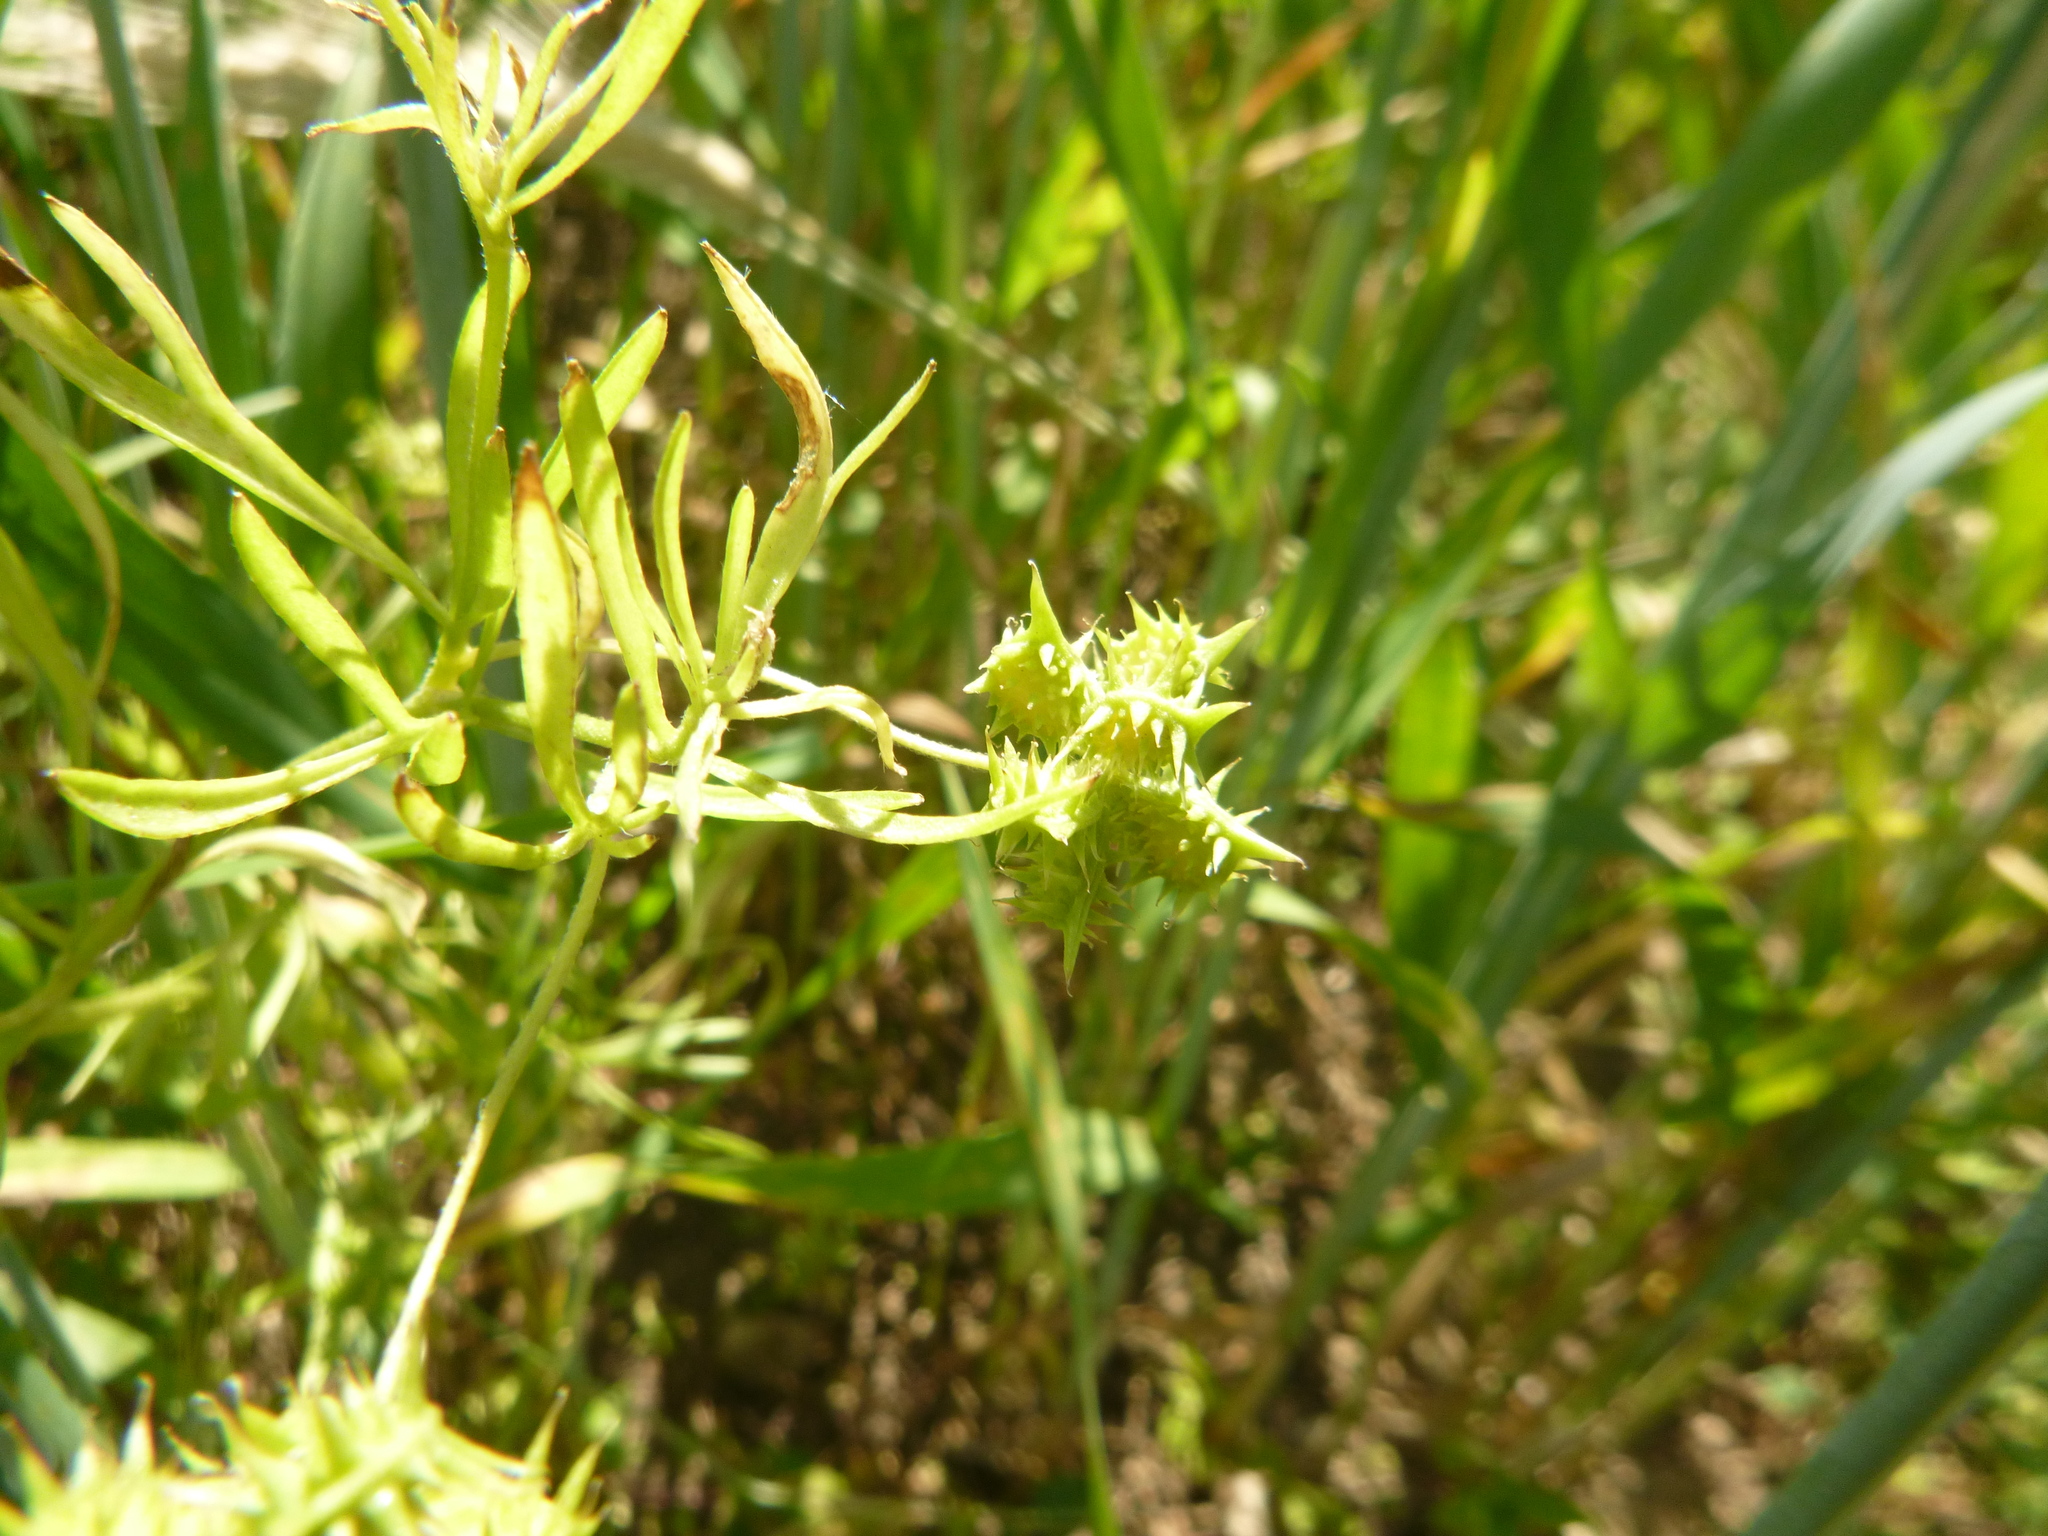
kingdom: Plantae
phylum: Tracheophyta
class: Magnoliopsida
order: Ranunculales
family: Ranunculaceae
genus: Ranunculus
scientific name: Ranunculus arvensis
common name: Corn buttercup
